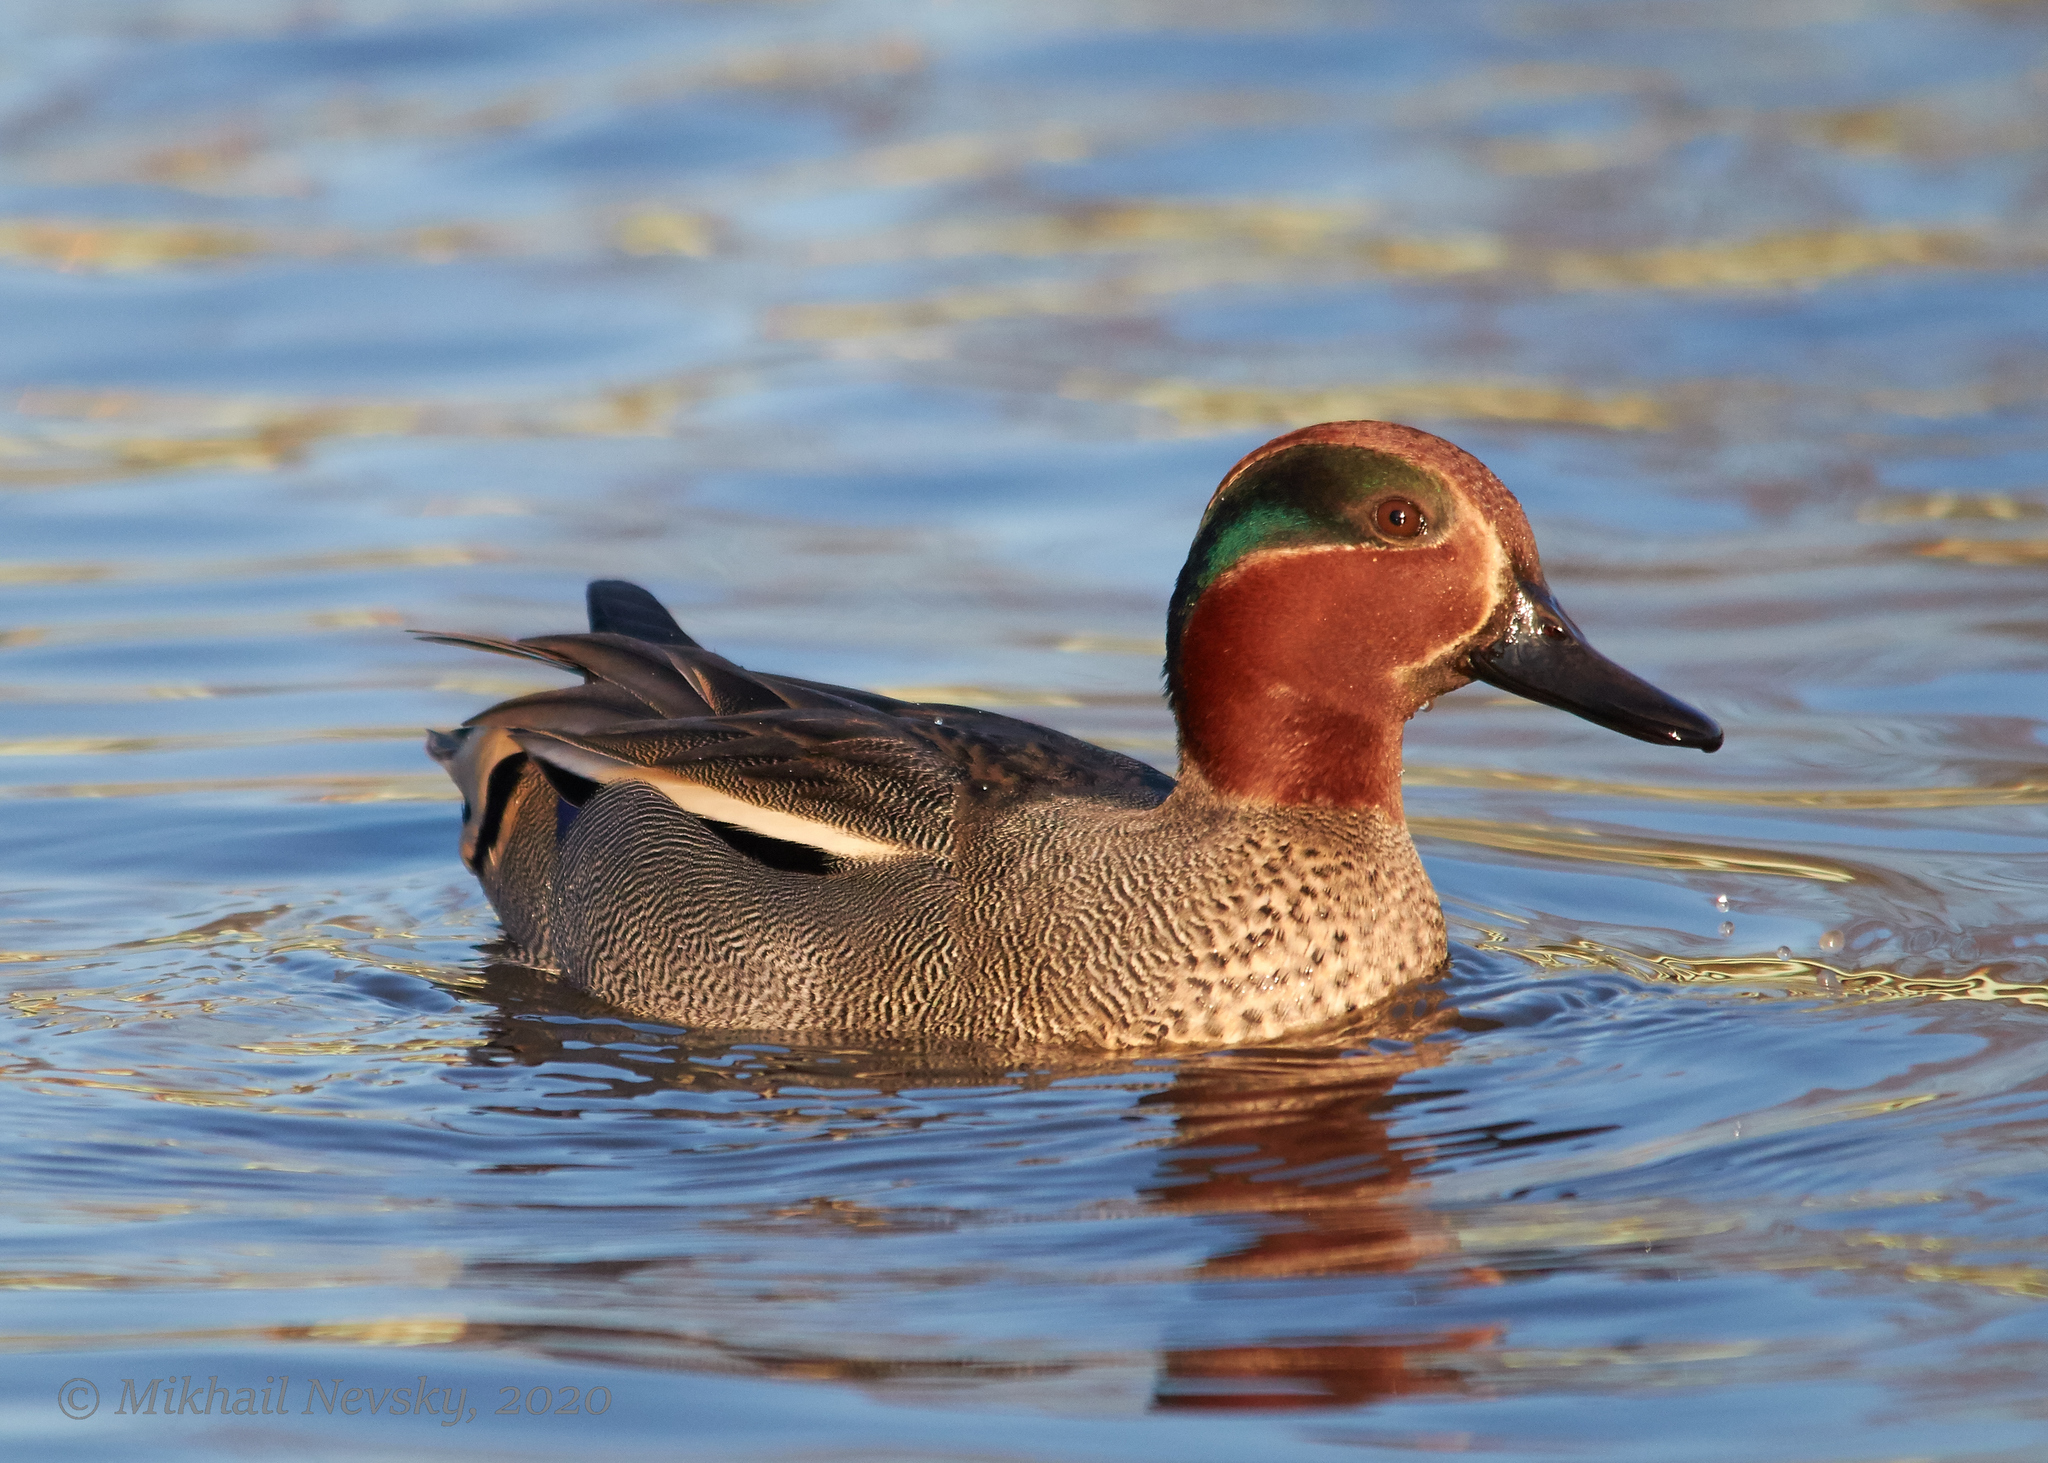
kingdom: Animalia
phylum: Chordata
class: Aves
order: Anseriformes
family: Anatidae
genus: Anas
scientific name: Anas crecca
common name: Eurasian teal
